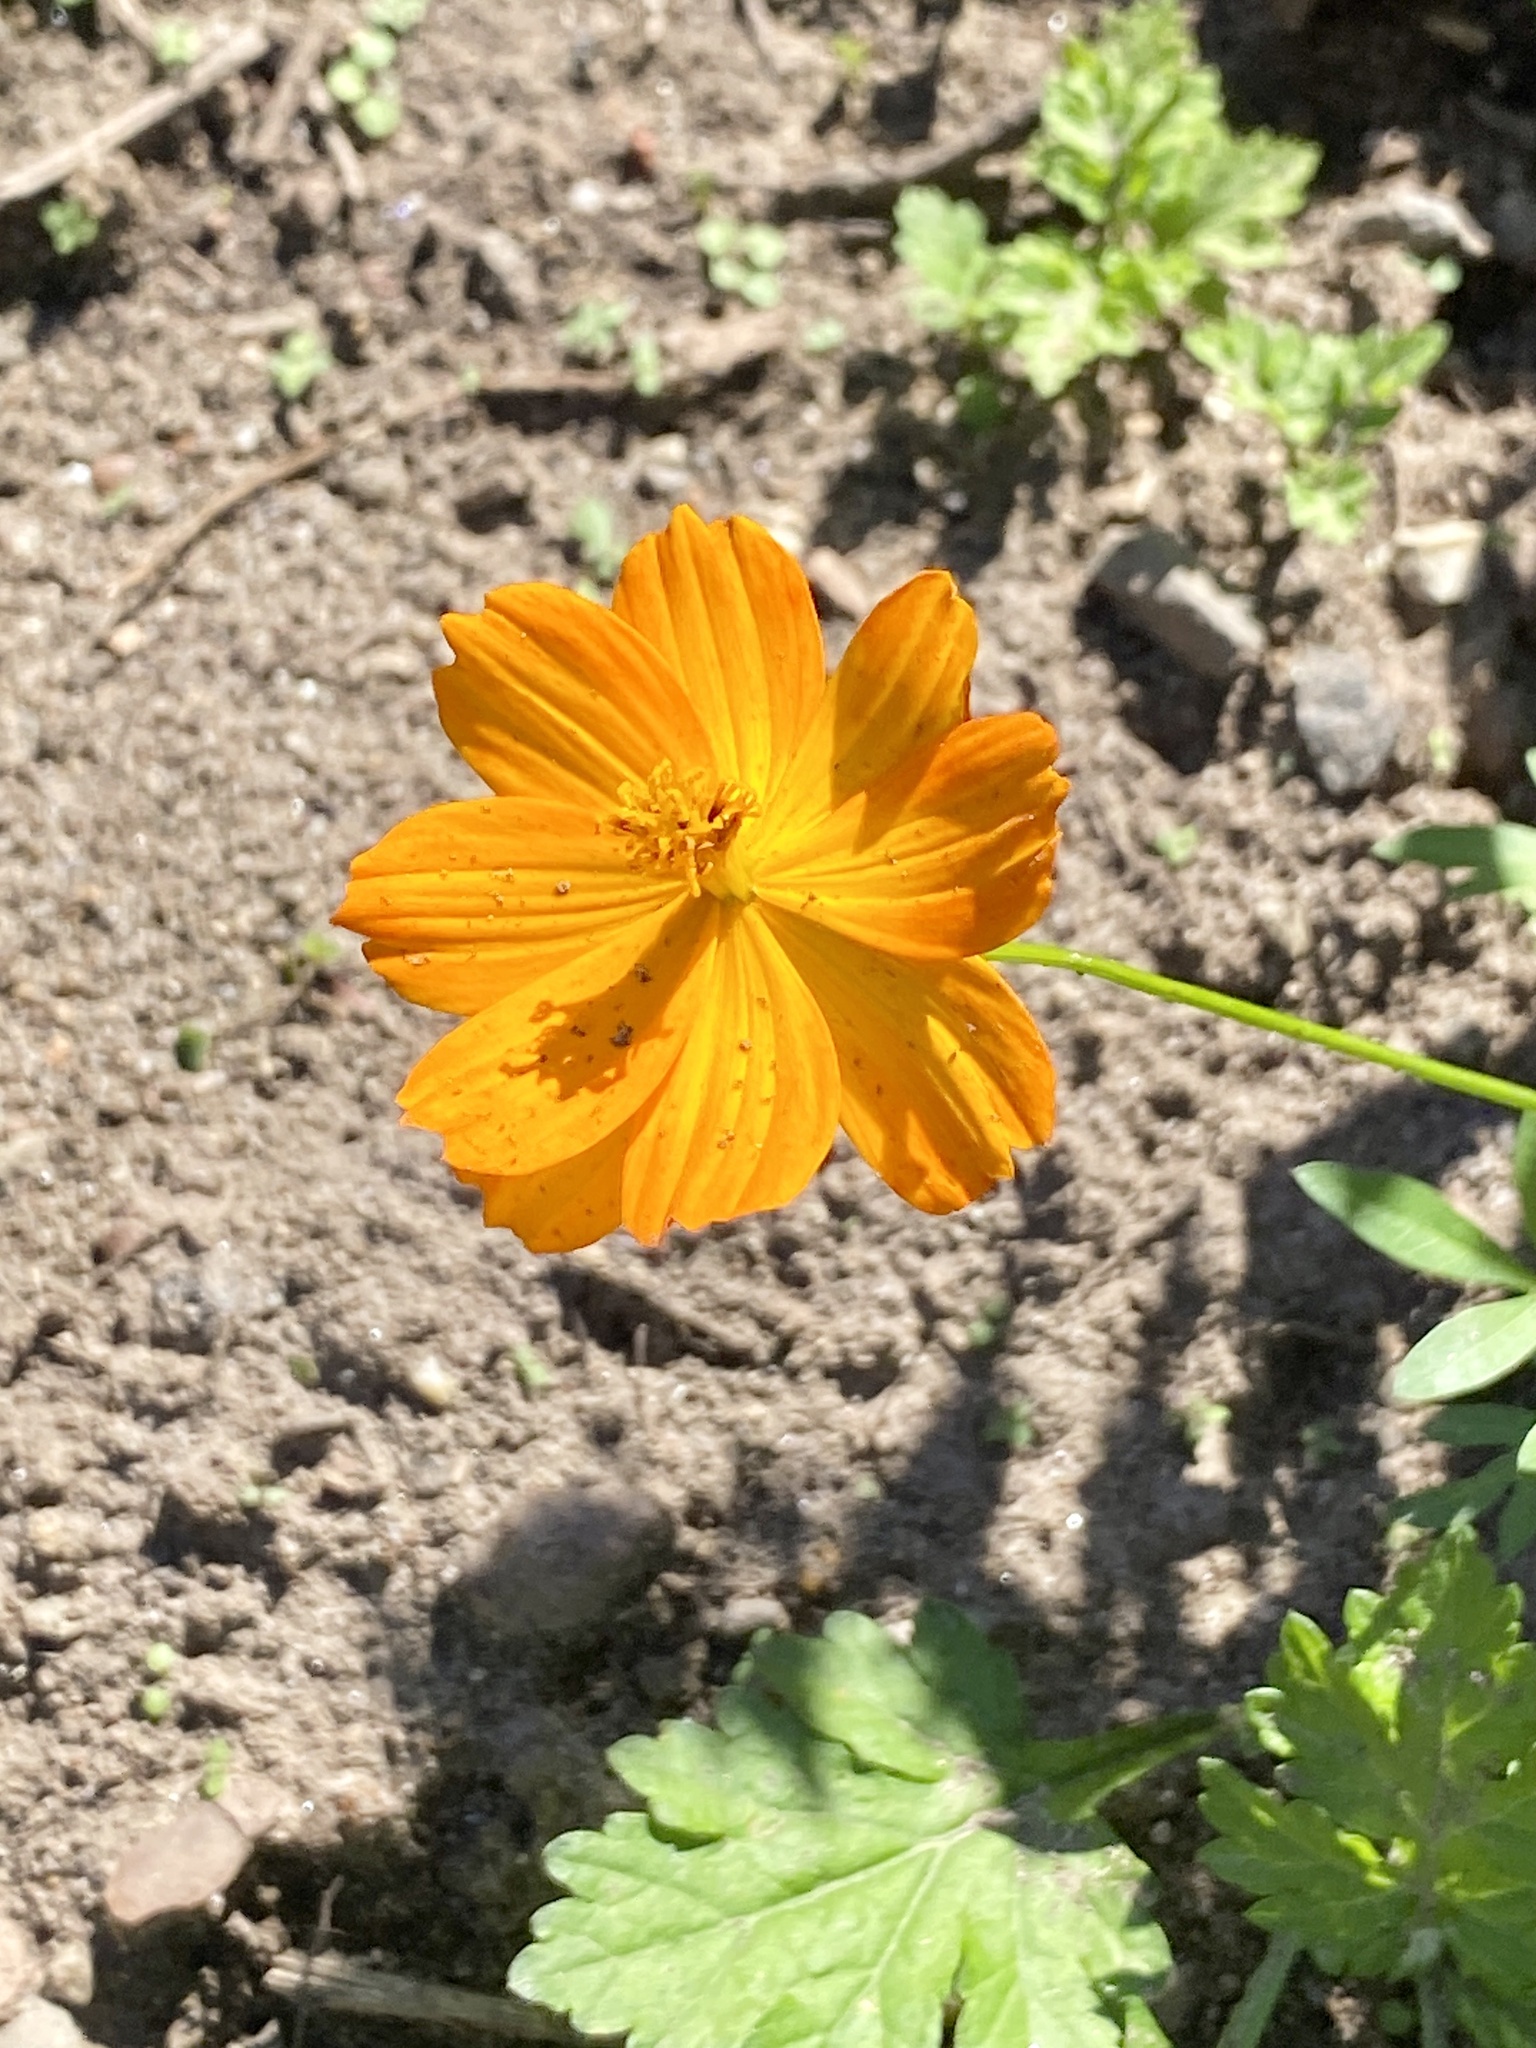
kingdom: Plantae
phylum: Tracheophyta
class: Magnoliopsida
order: Asterales
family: Asteraceae
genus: Cosmos
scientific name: Cosmos sulphureus
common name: Sulphur cosmos
